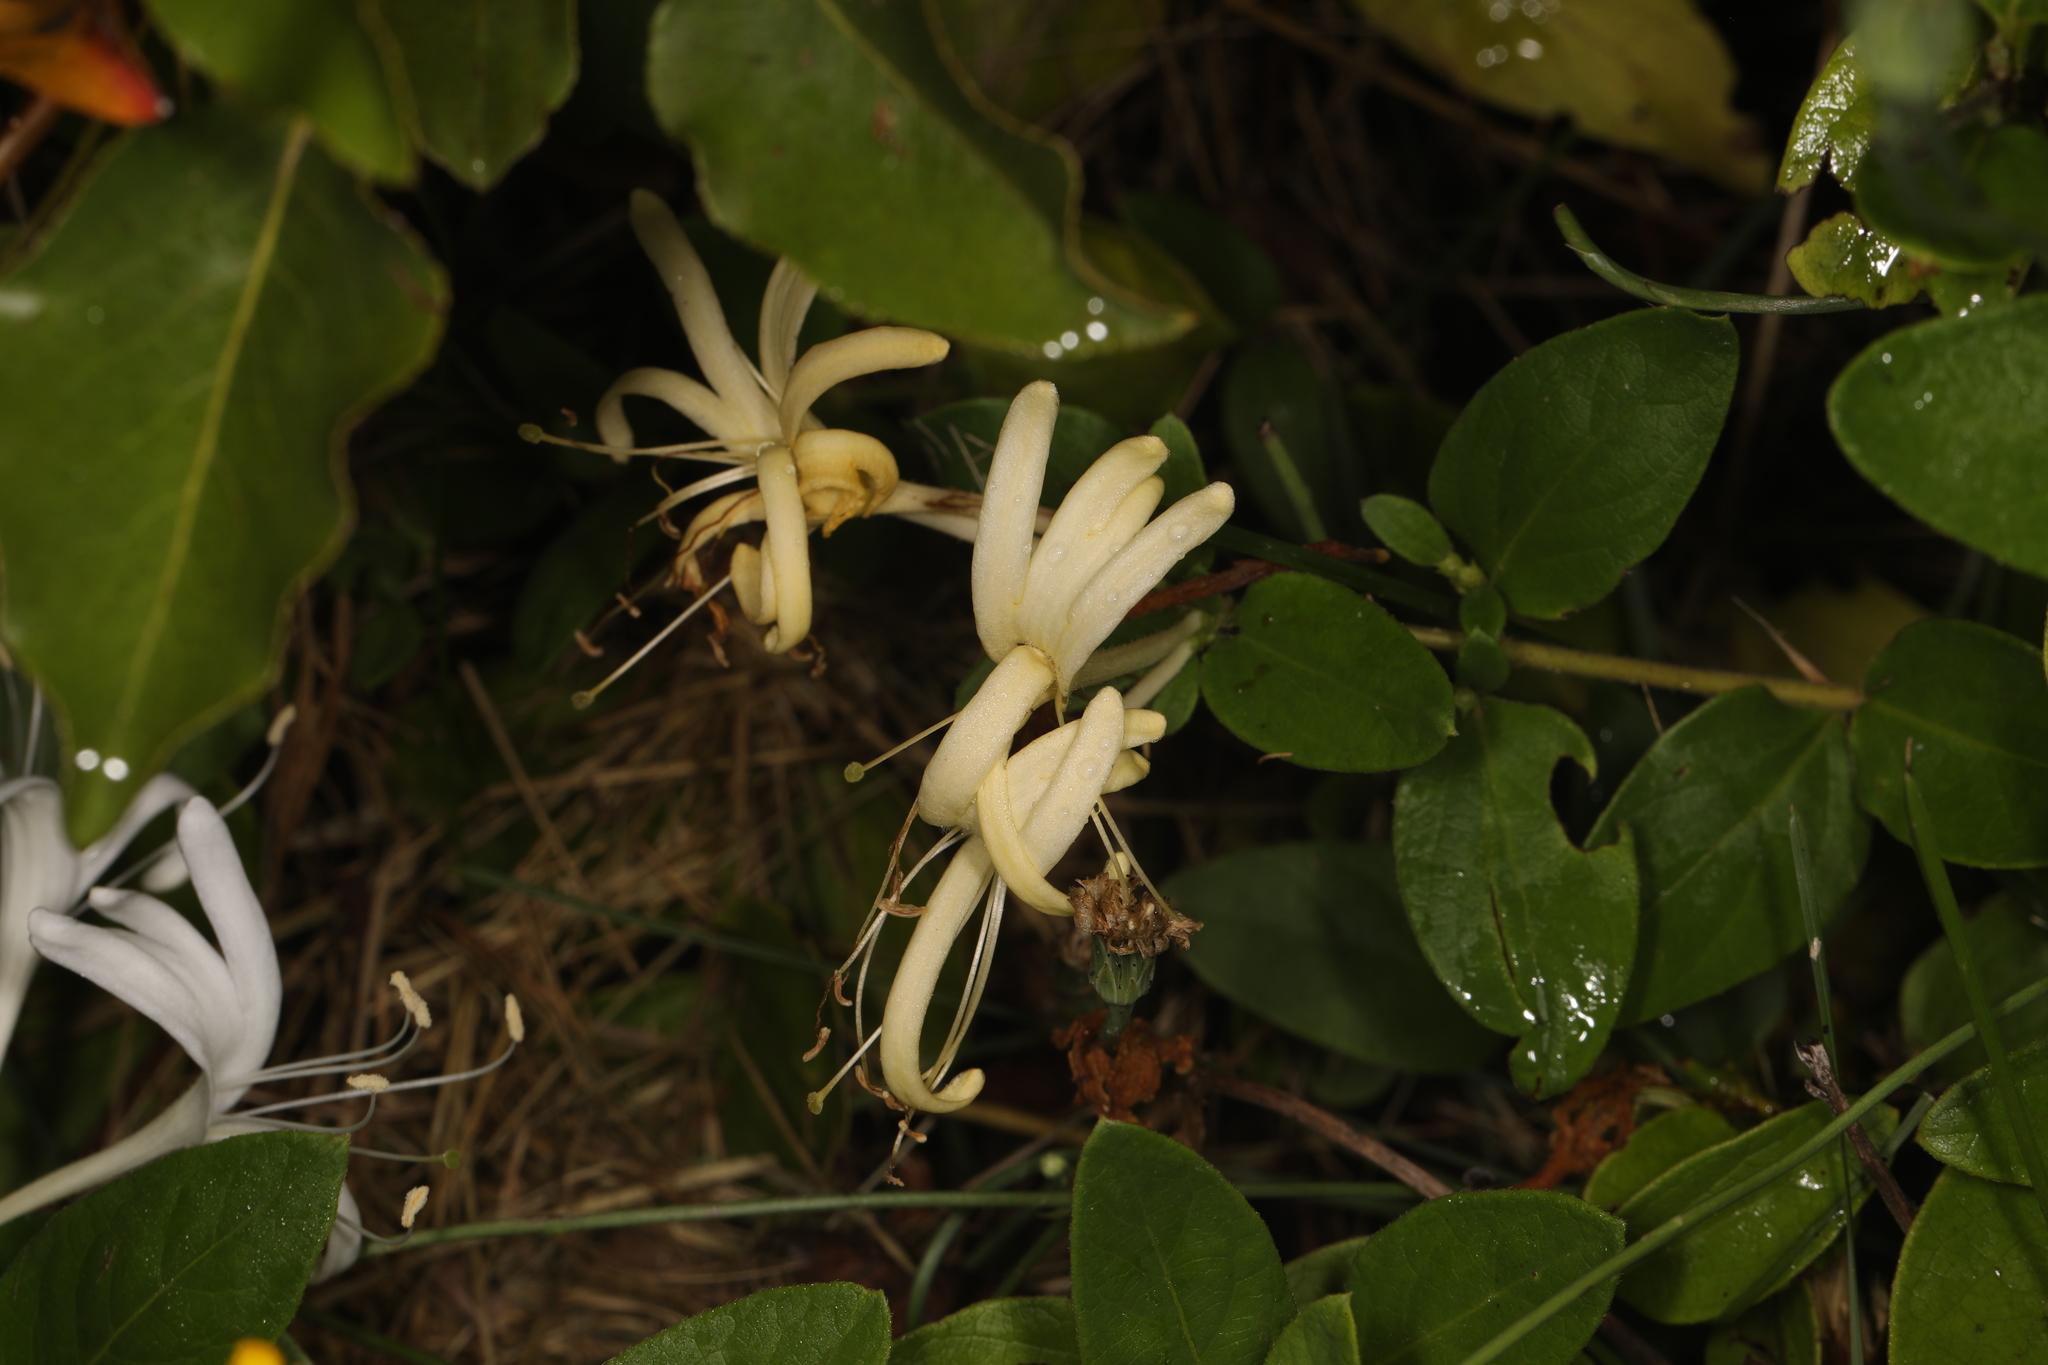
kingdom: Plantae
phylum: Tracheophyta
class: Magnoliopsida
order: Dipsacales
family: Caprifoliaceae
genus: Lonicera
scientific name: Lonicera japonica
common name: Japanese honeysuckle
